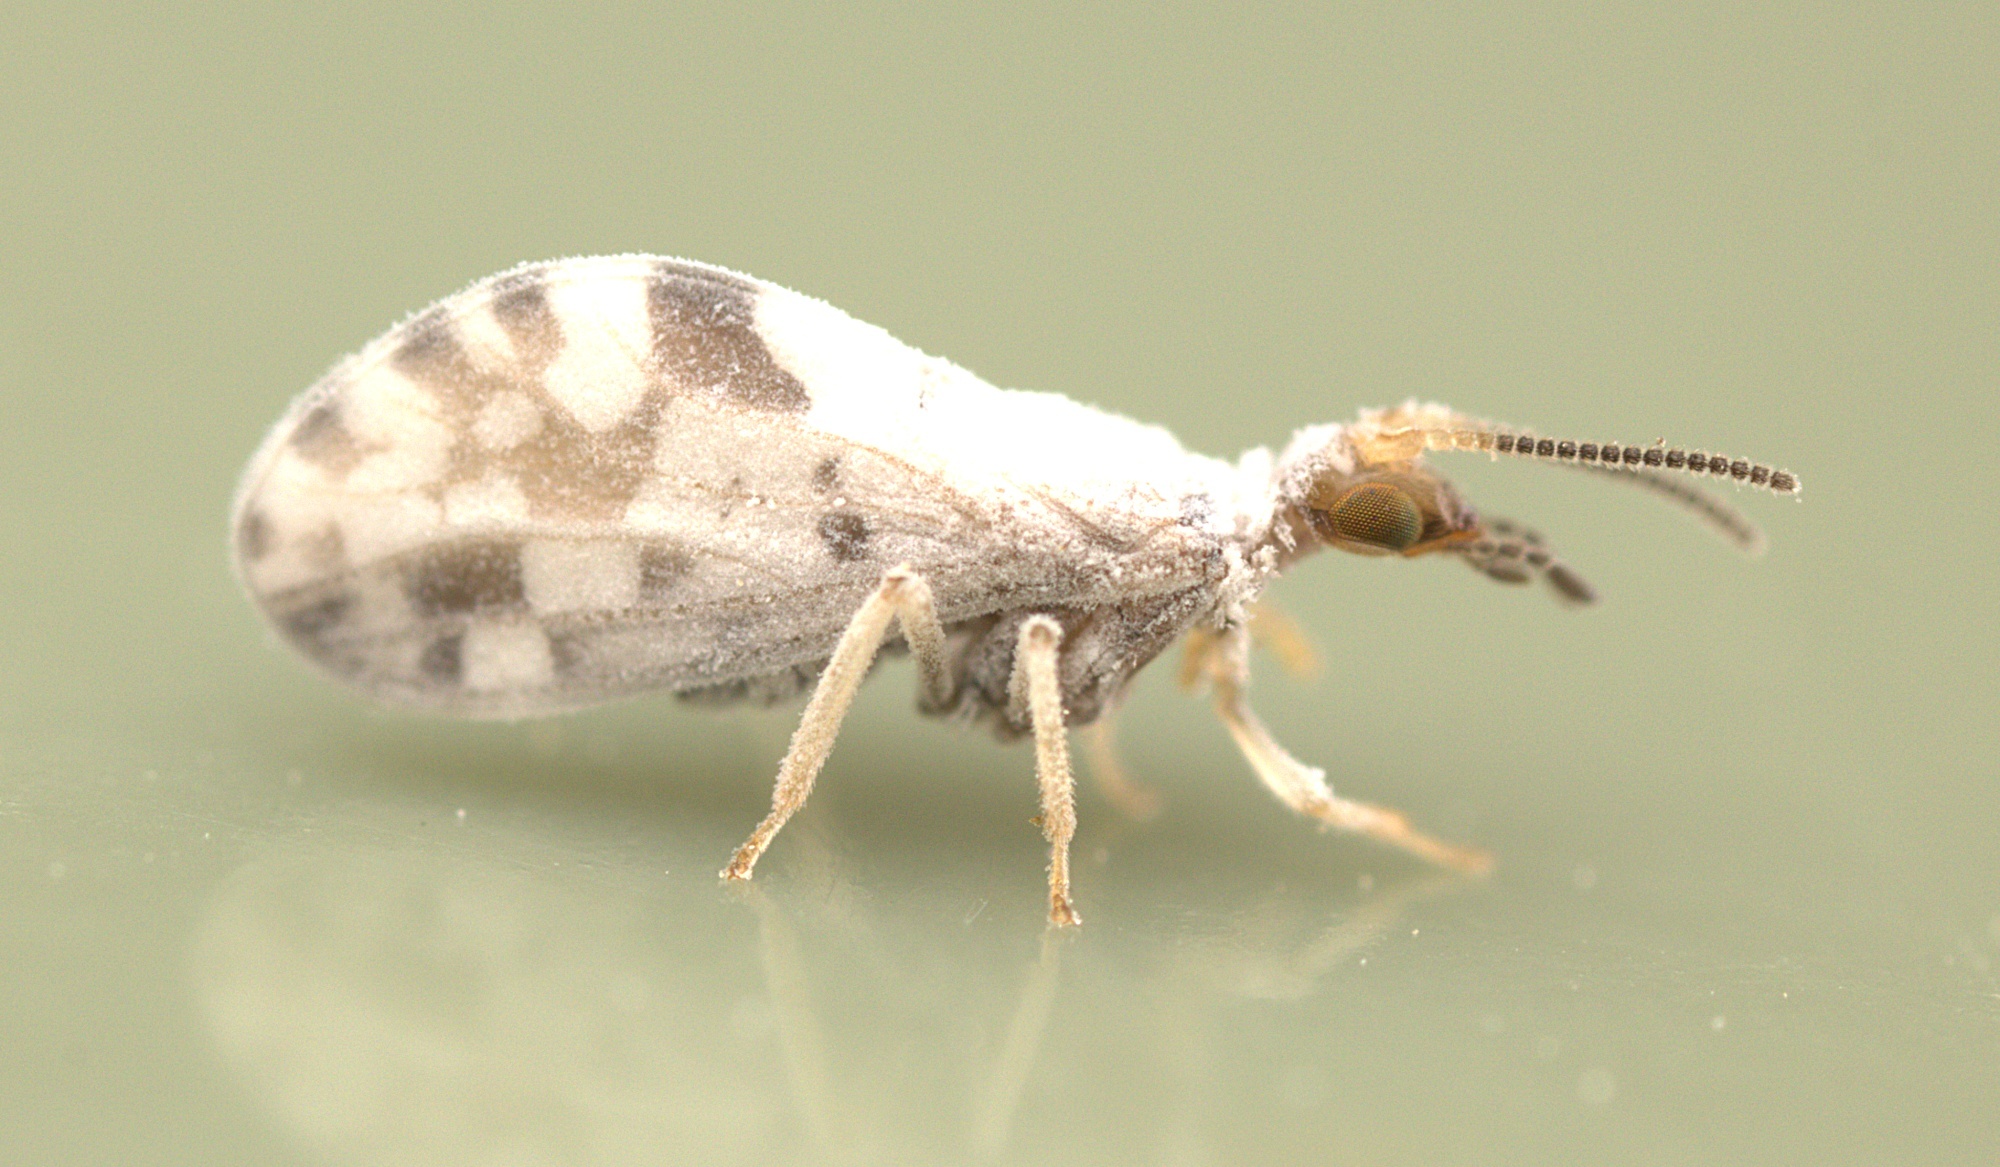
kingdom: Animalia
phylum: Arthropoda
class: Insecta
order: Neuroptera
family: Coniopterygidae
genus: Heteroconis
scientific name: Heteroconis ornata
